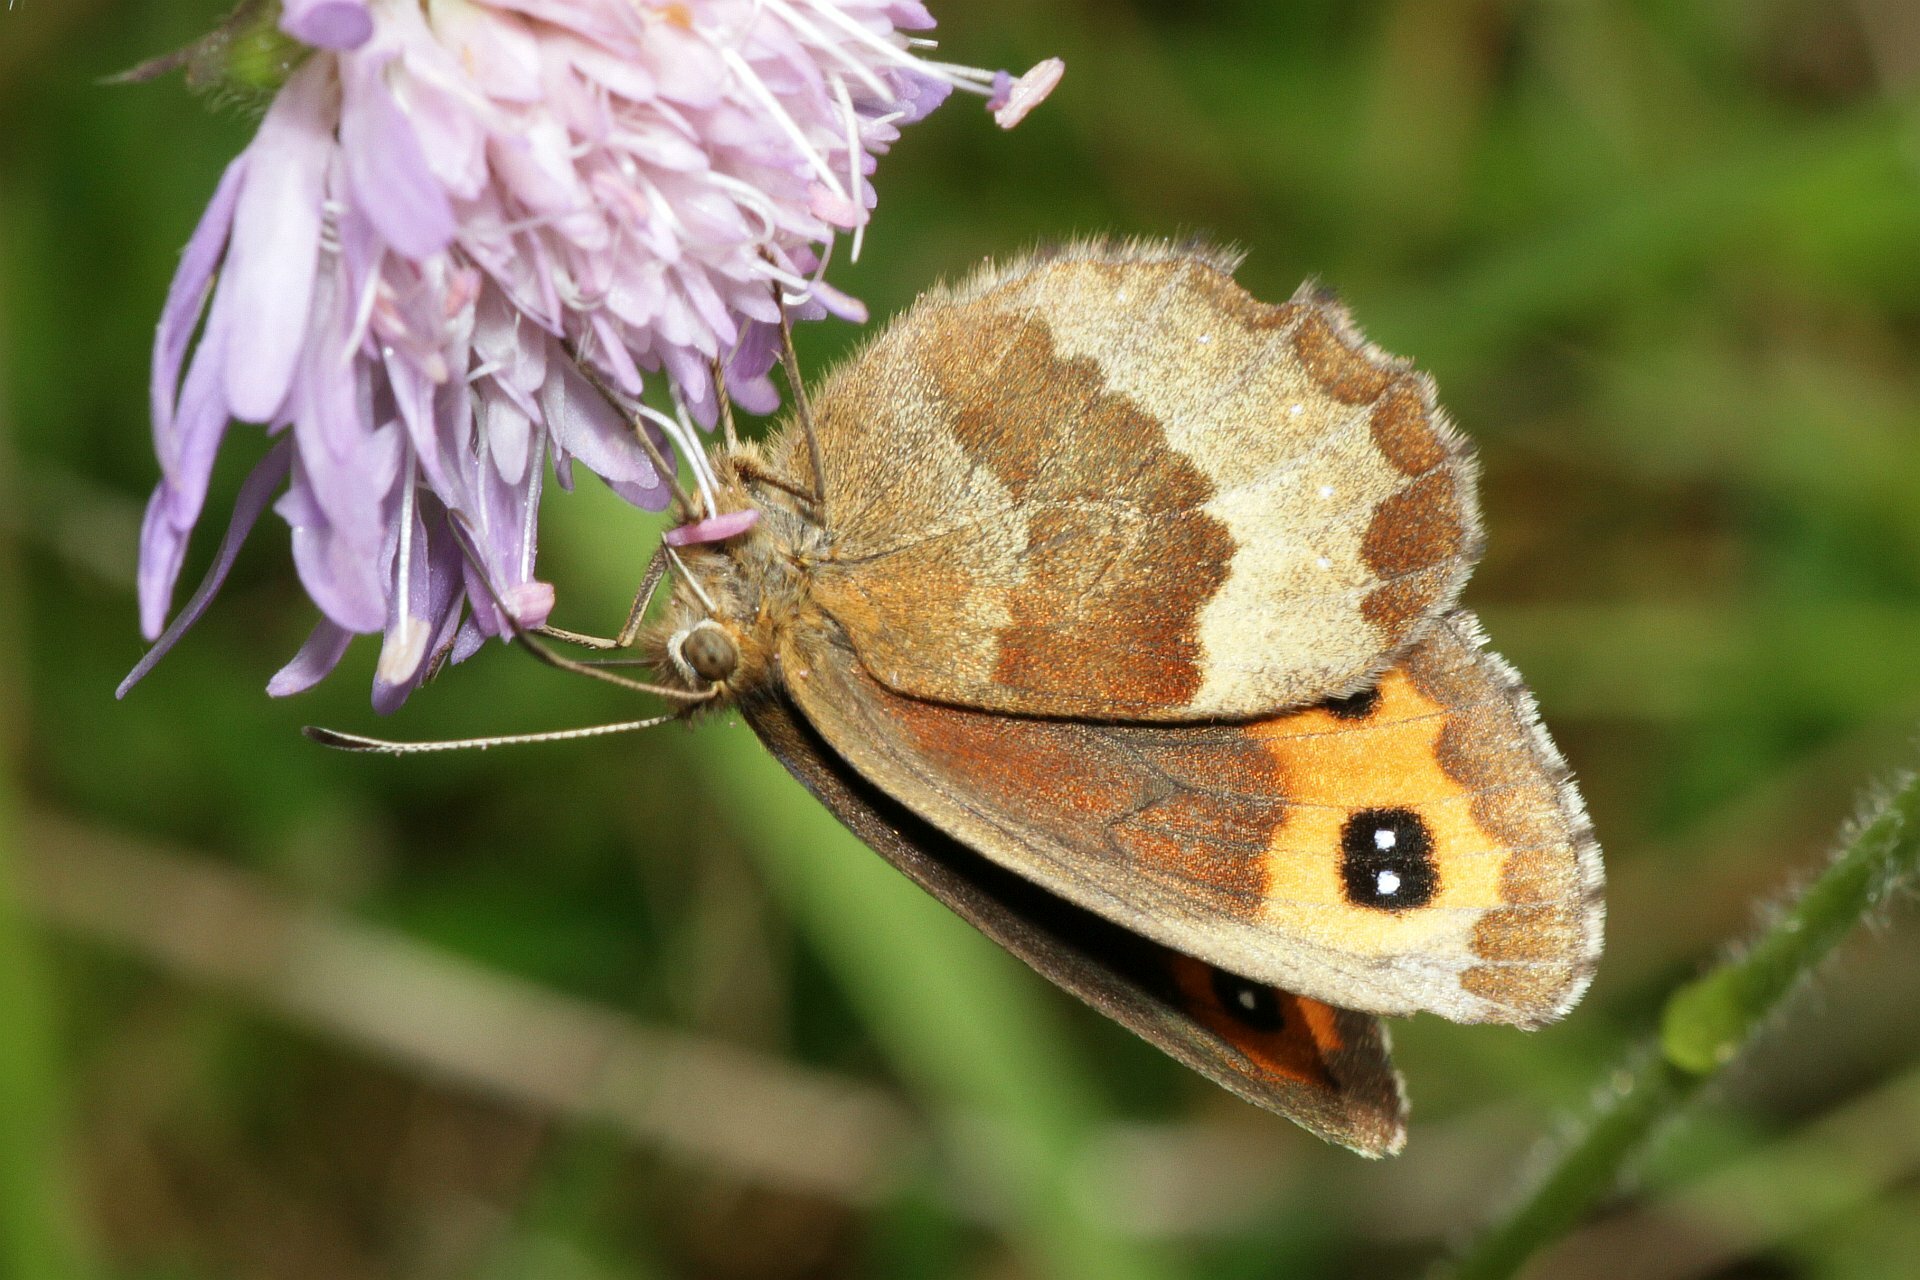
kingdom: Animalia
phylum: Arthropoda
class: Insecta
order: Lepidoptera
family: Nymphalidae
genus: Erebia
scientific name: Erebia aethiops
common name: Scotch argus
